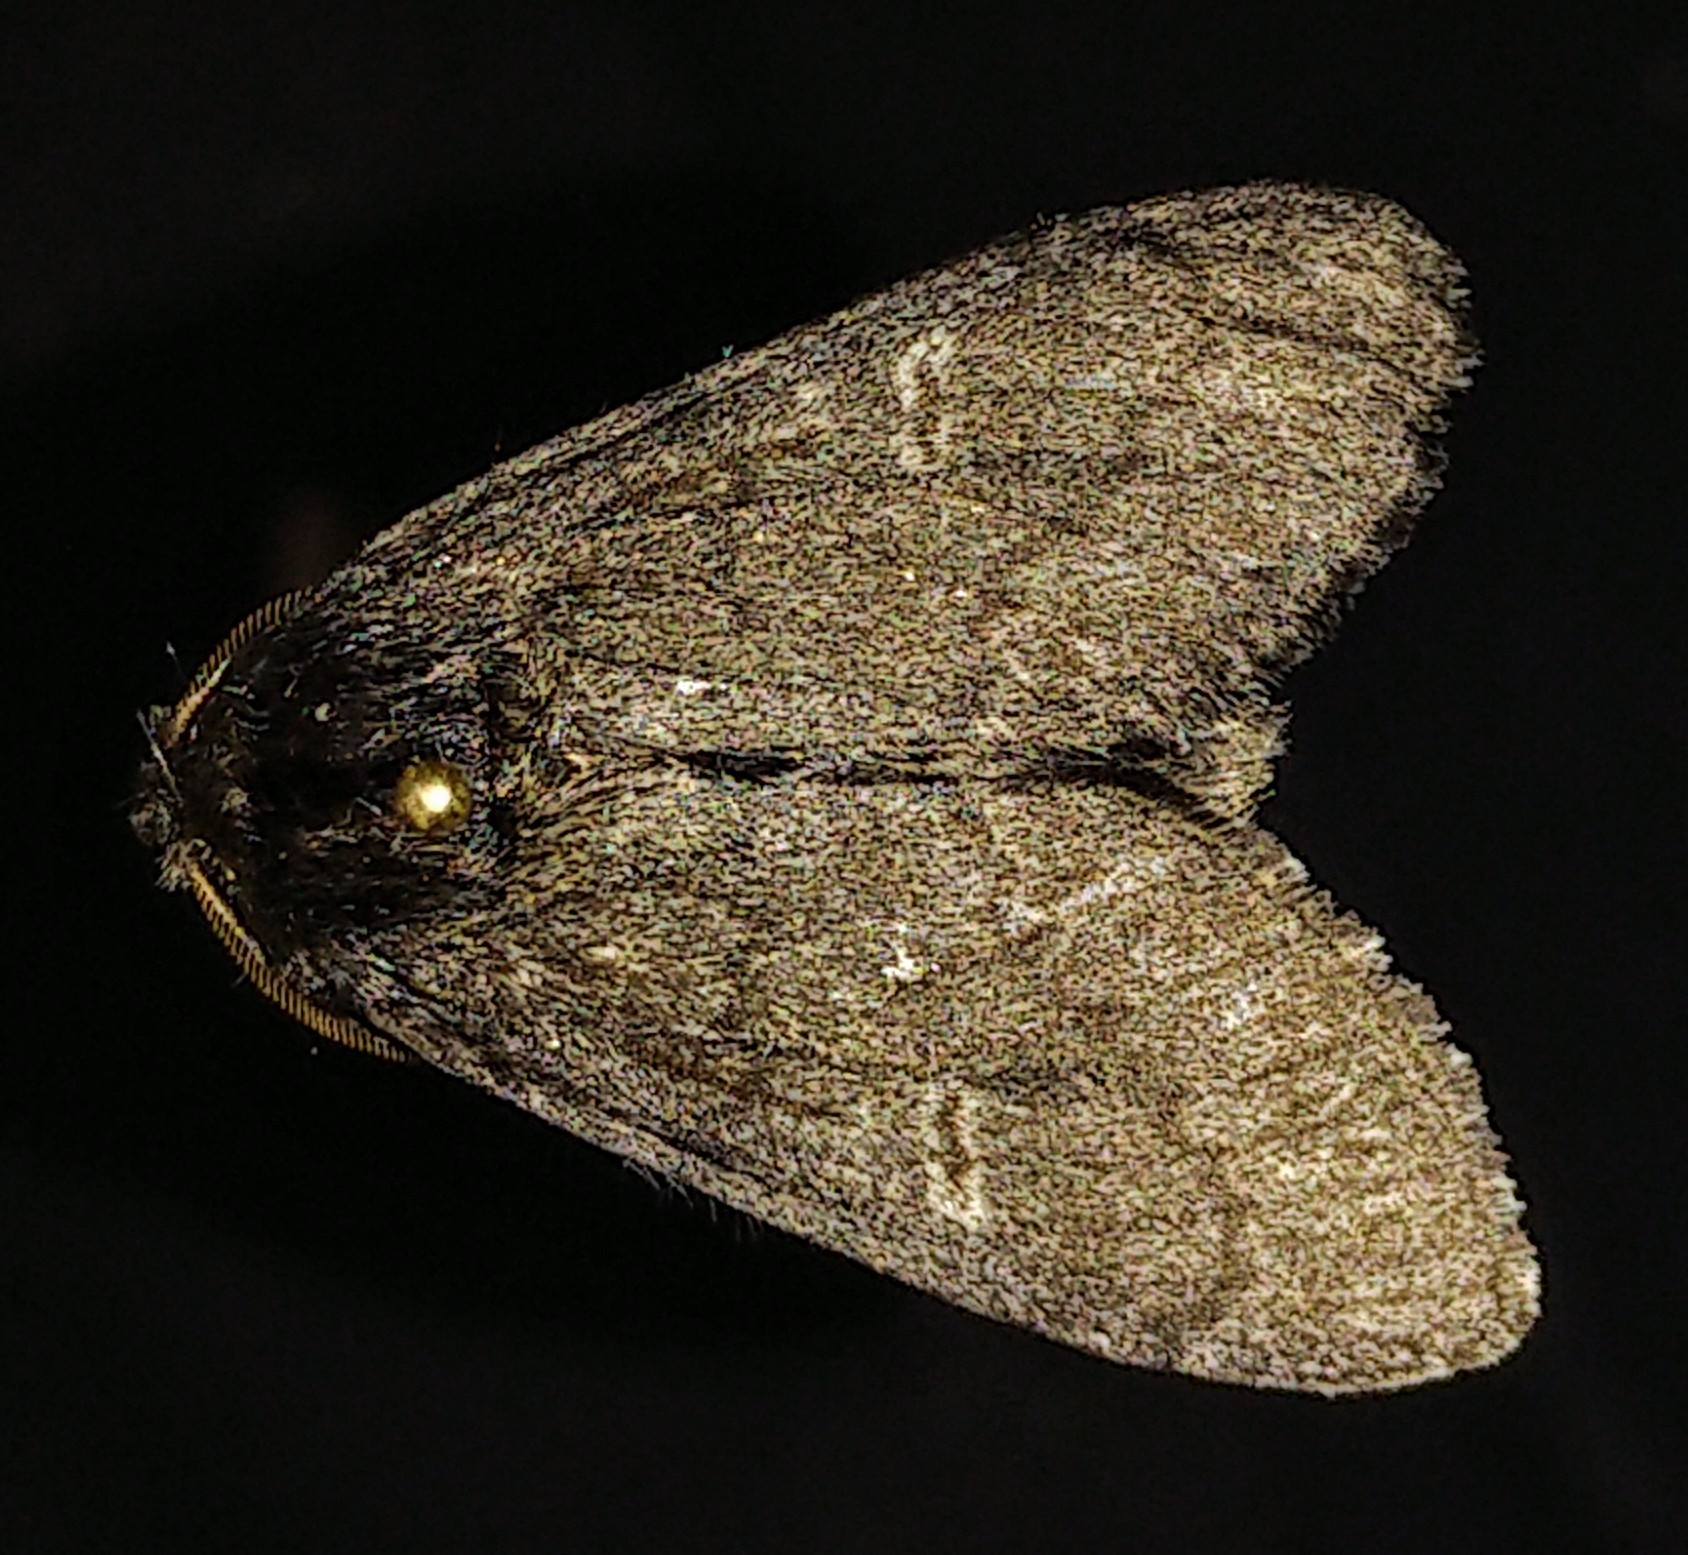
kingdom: Animalia
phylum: Arthropoda
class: Insecta
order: Lepidoptera
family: Notodontidae
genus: Notodonta
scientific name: Notodonta torva
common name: Large dark prominent
